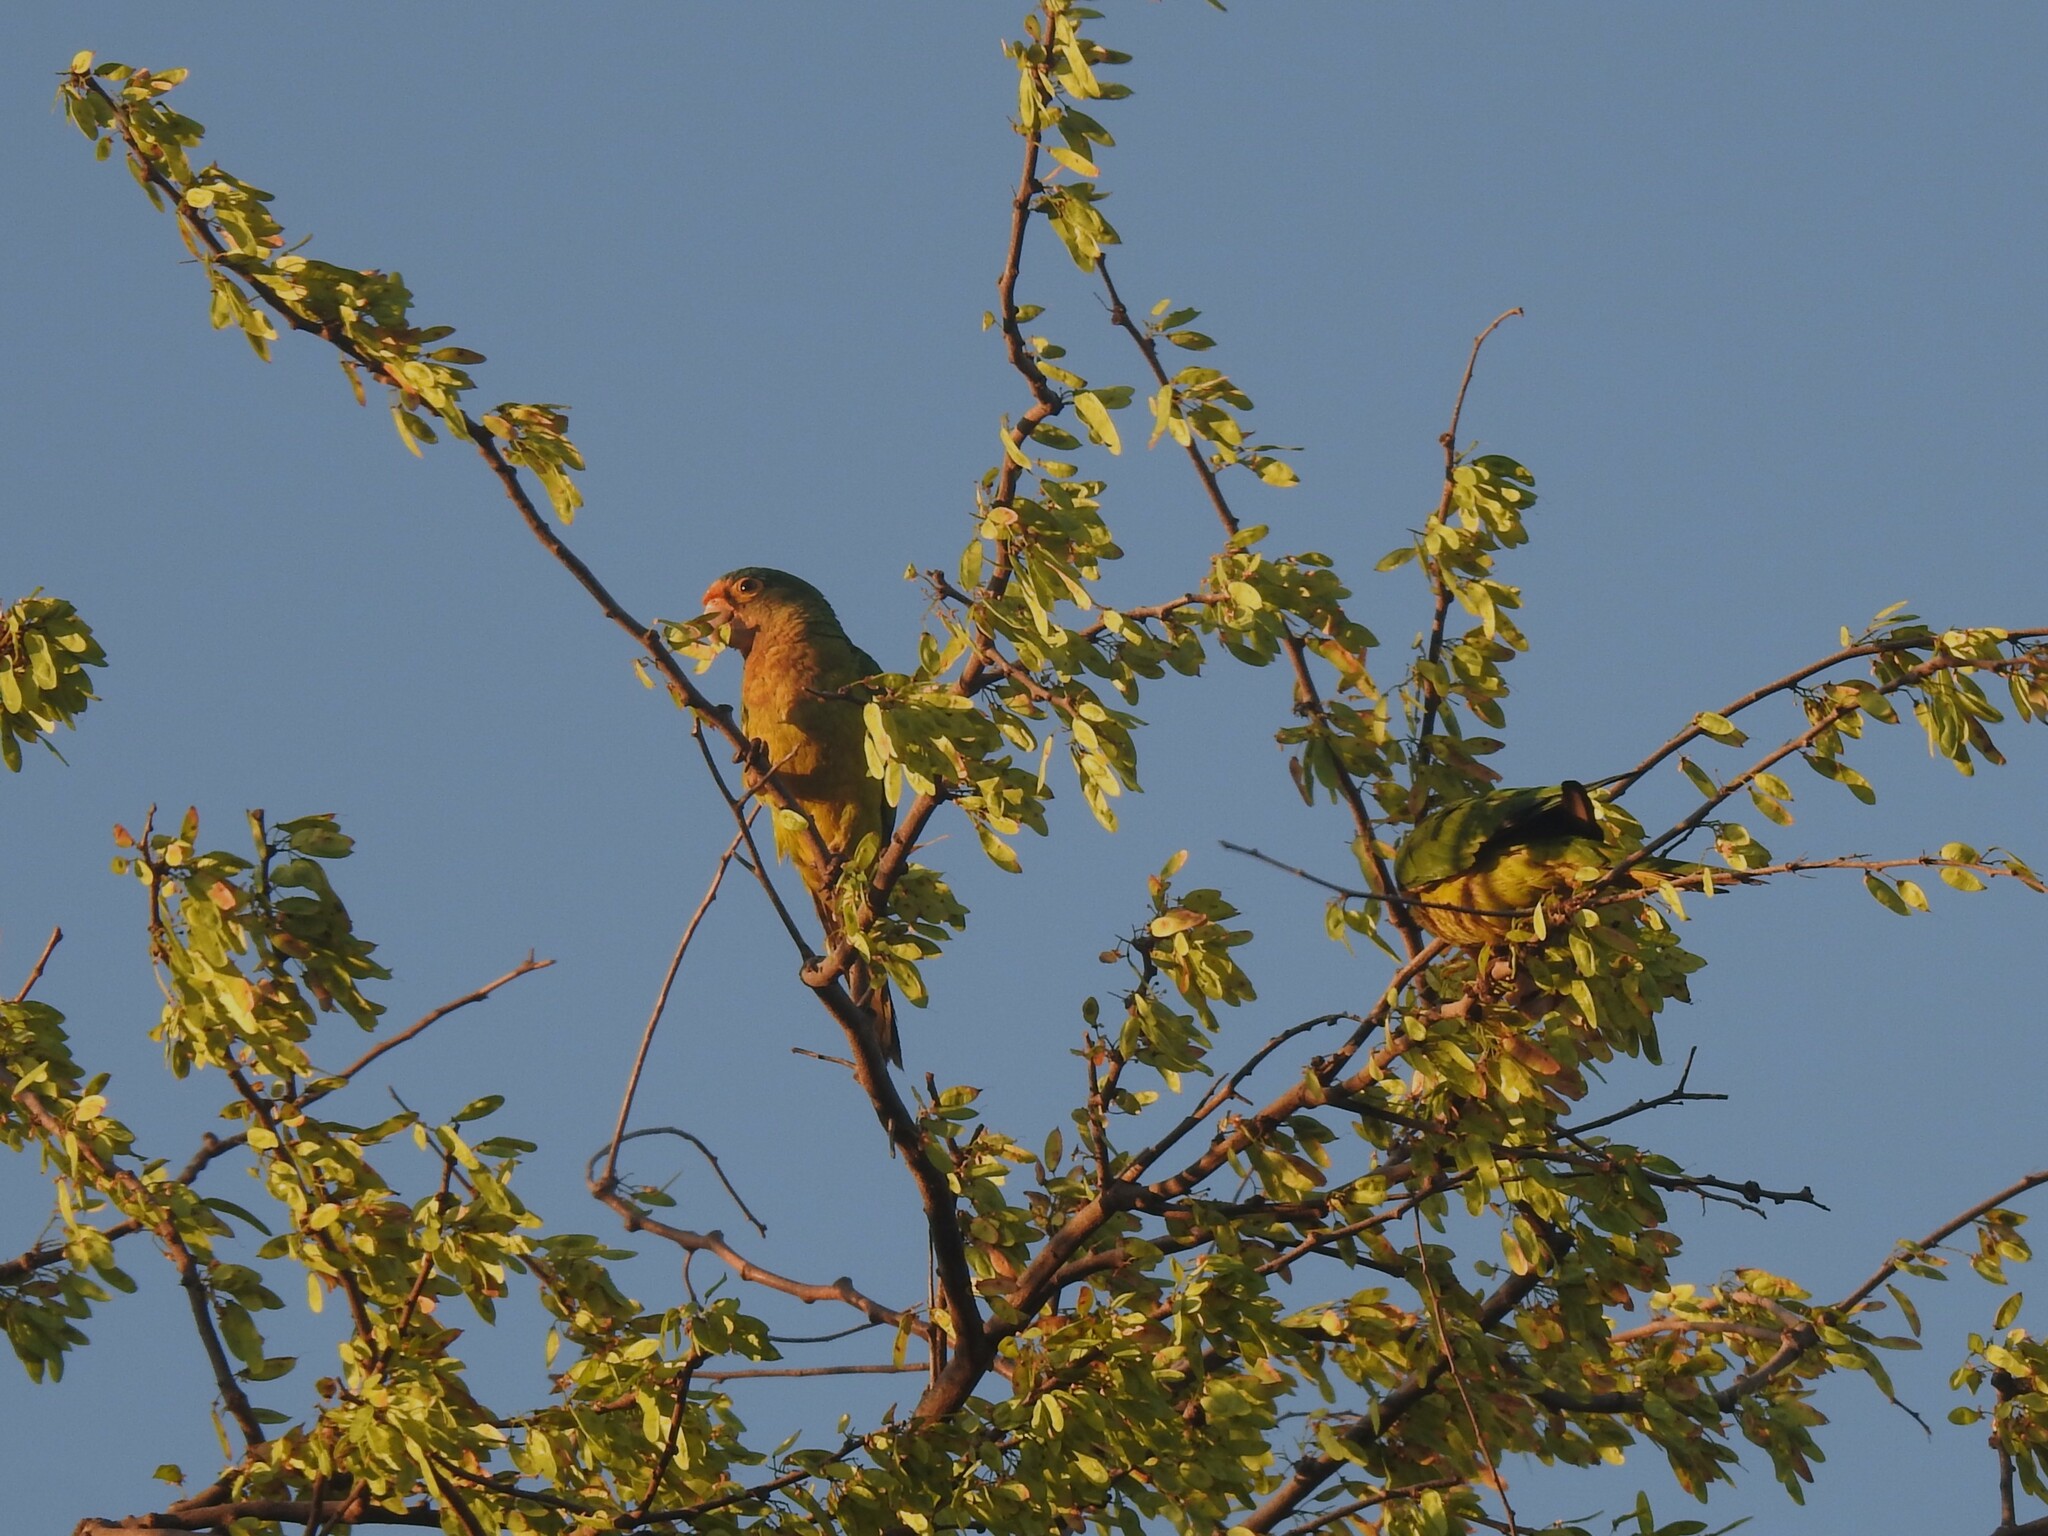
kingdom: Animalia
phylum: Chordata
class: Aves
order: Psittaciformes
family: Psittacidae
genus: Aratinga
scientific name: Aratinga canicularis
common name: Orange-fronted parakeet
